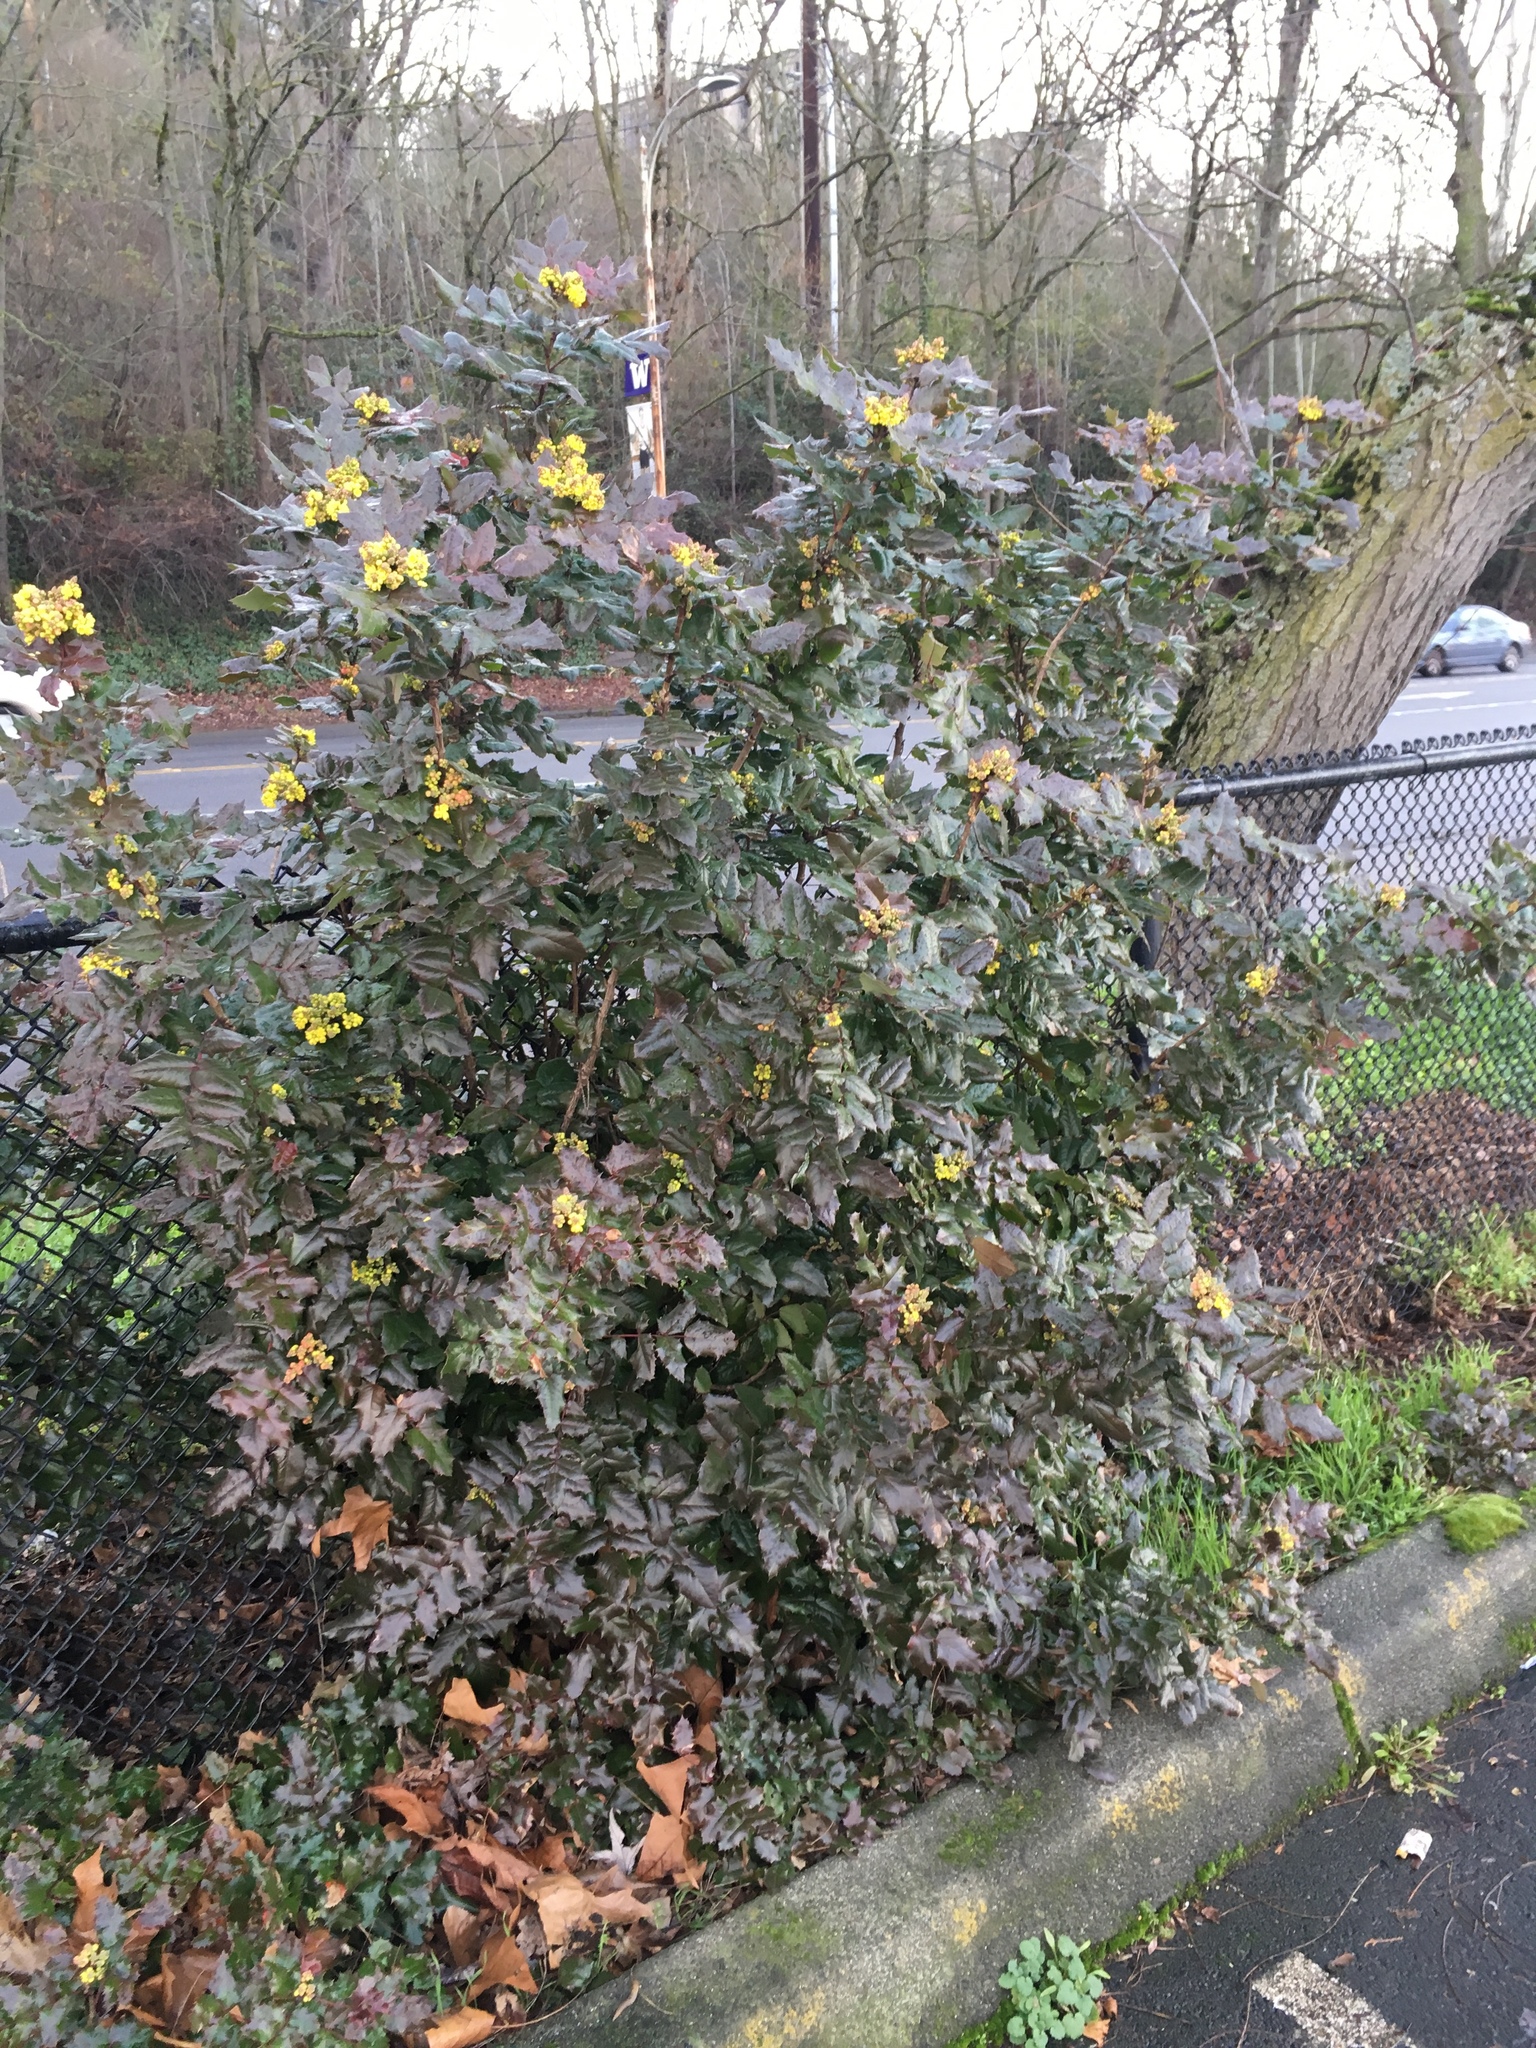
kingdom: Plantae
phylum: Tracheophyta
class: Magnoliopsida
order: Ranunculales
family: Berberidaceae
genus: Mahonia
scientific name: Mahonia aquifolium
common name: Oregon-grape
